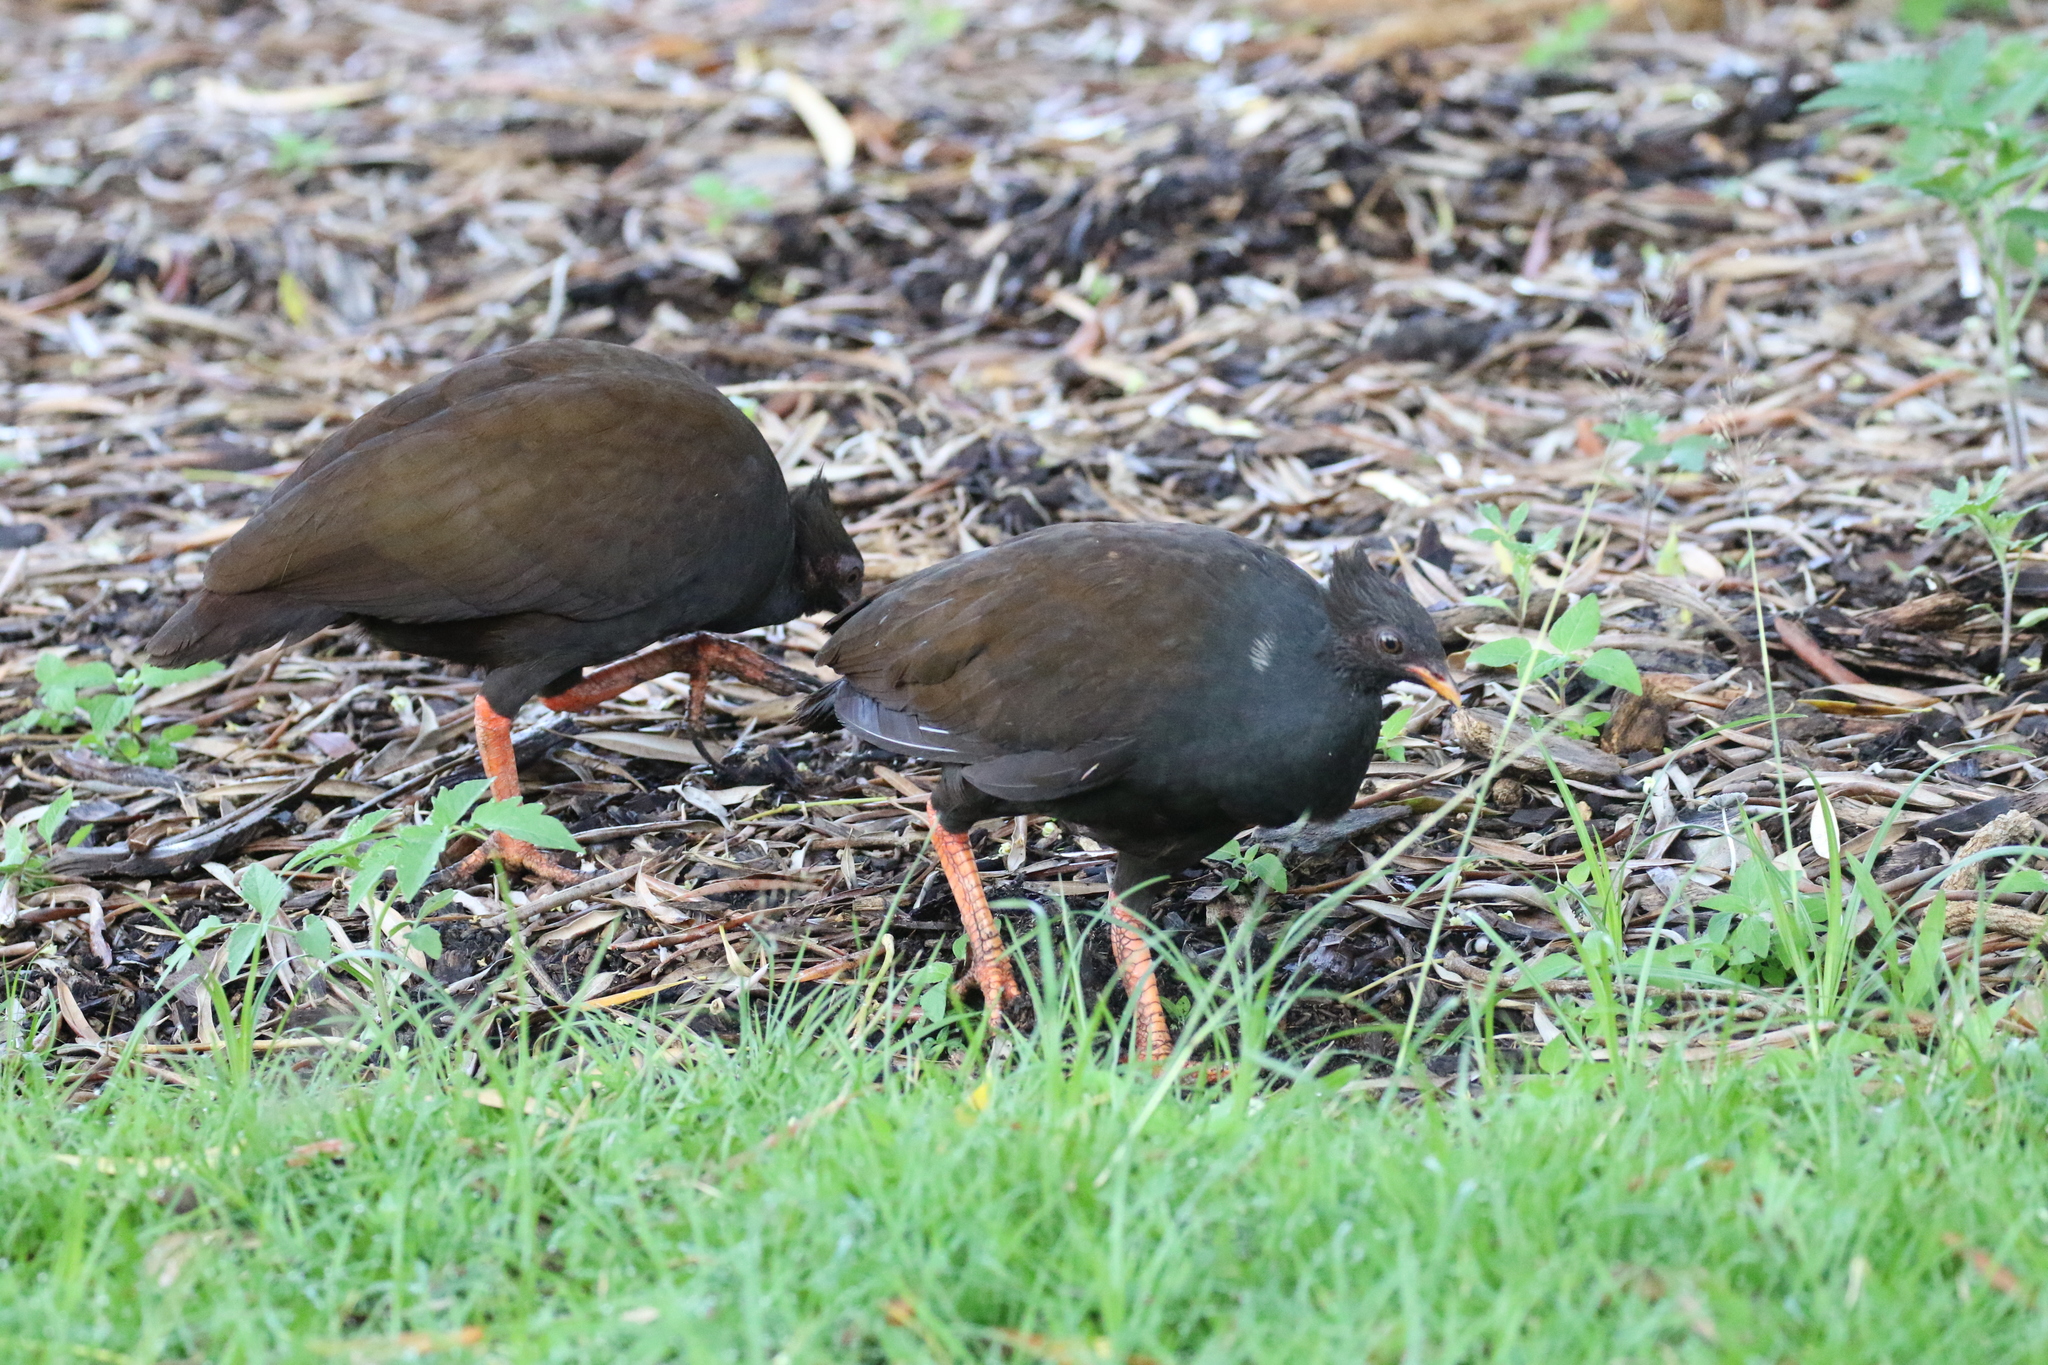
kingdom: Animalia
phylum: Chordata
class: Aves
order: Galliformes
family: Megapodiidae
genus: Megapodius
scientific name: Megapodius reinwardt
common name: Orange-footed scrubfowl
